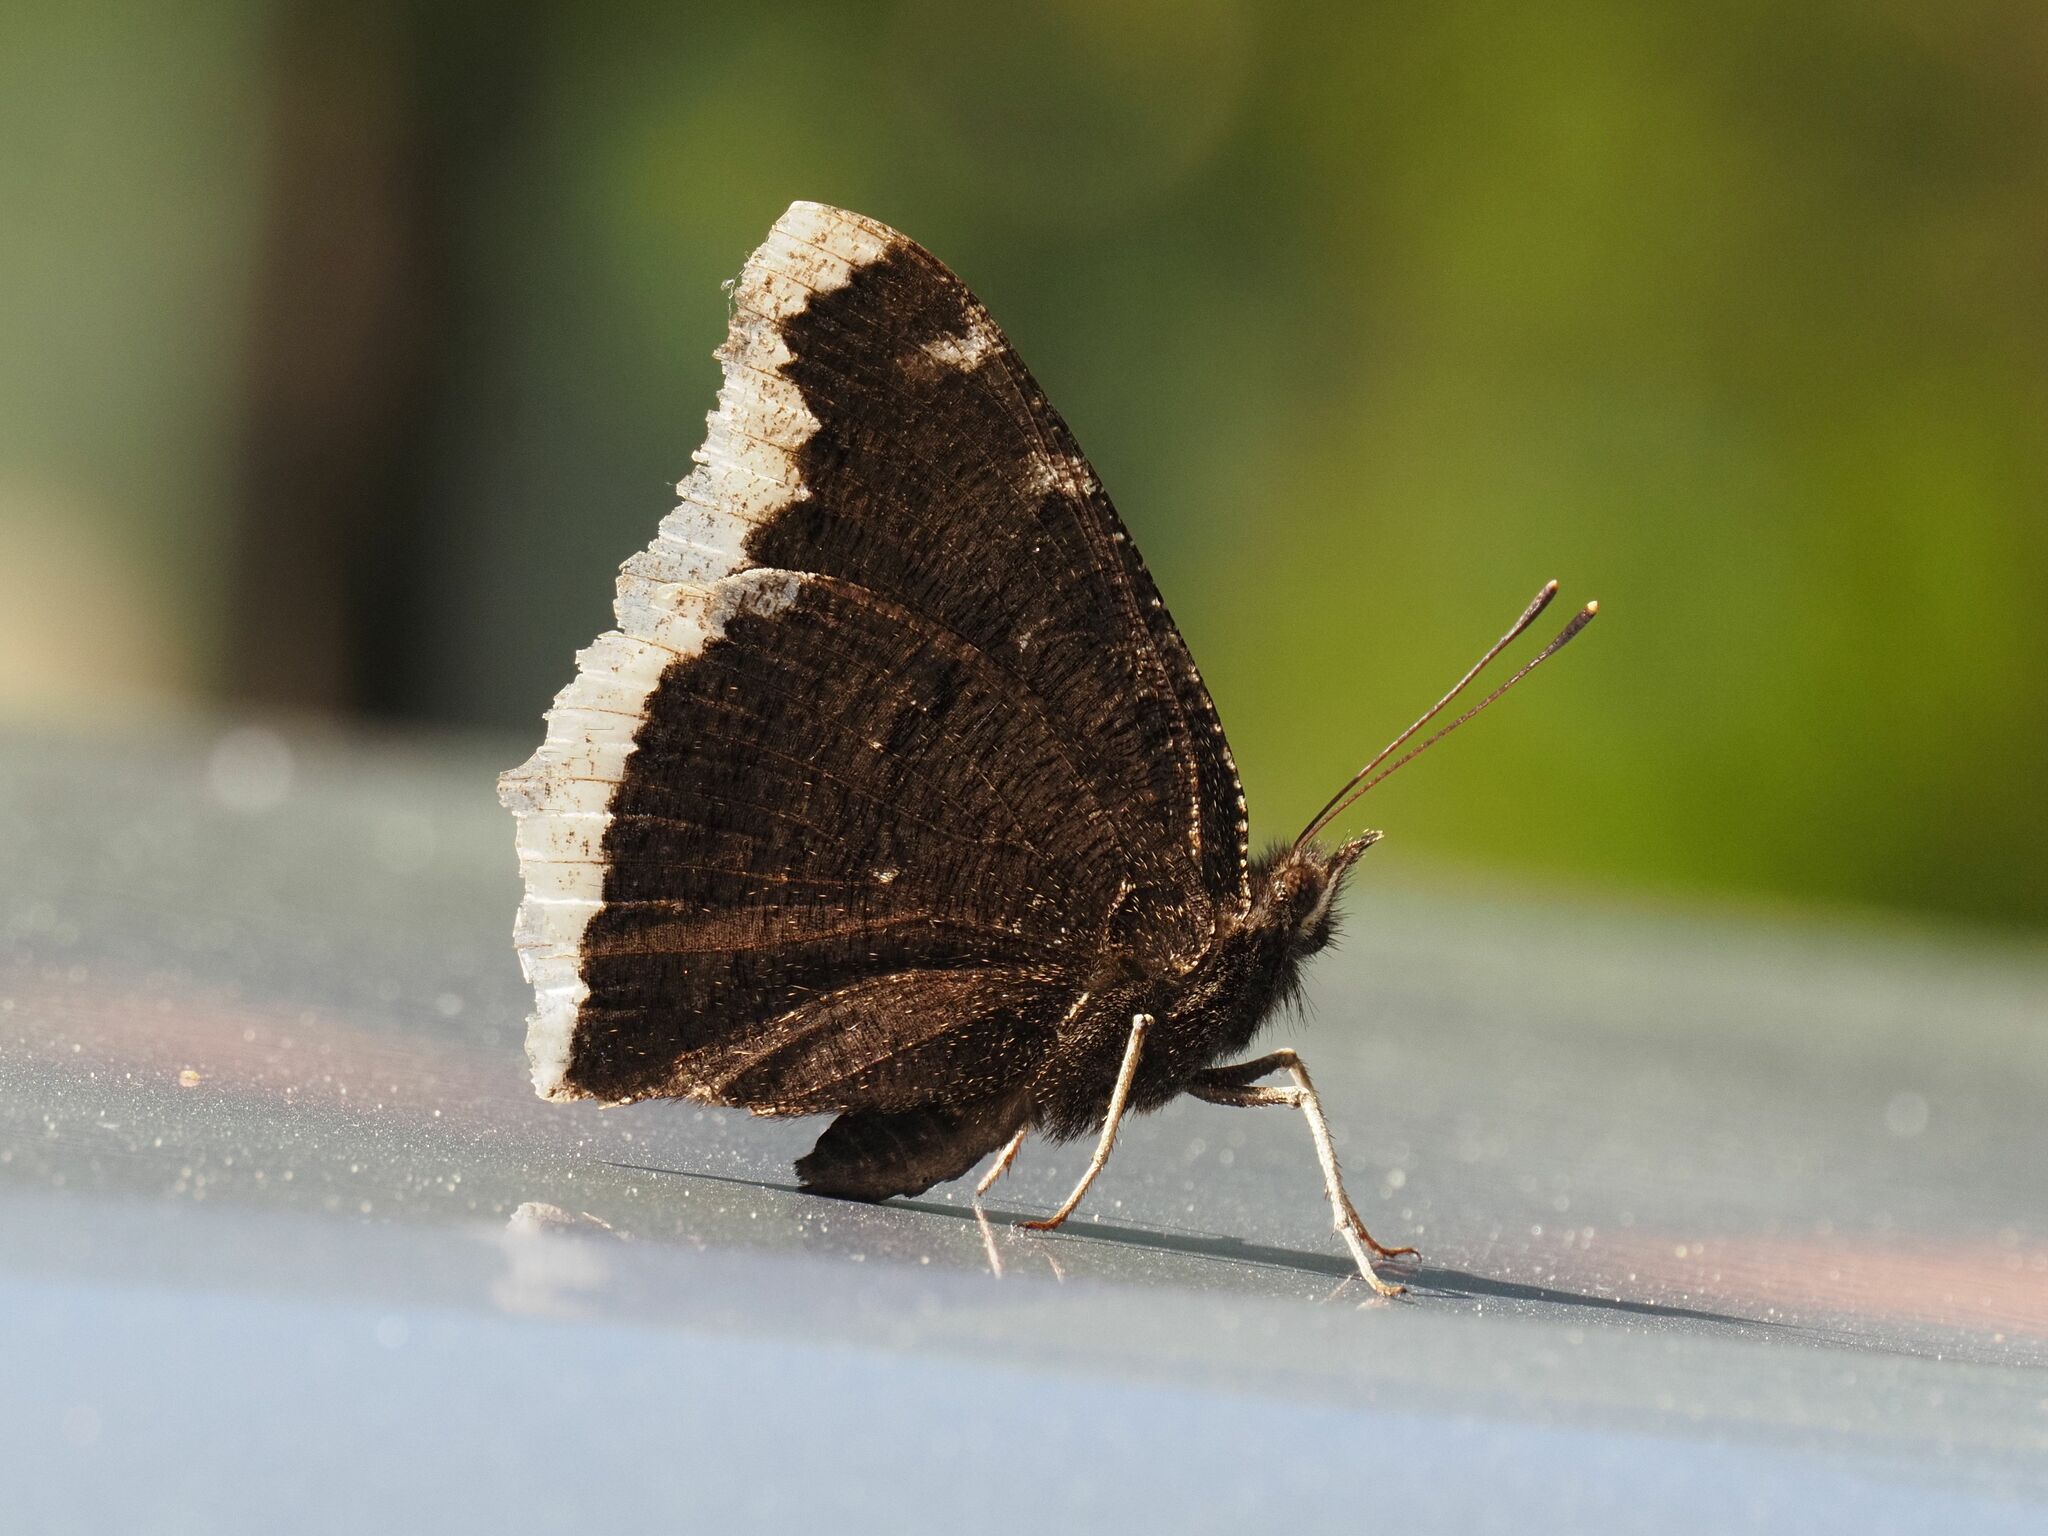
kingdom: Animalia
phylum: Arthropoda
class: Insecta
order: Lepidoptera
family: Nymphalidae
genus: Nymphalis
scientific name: Nymphalis antiopa
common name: Camberwell beauty
